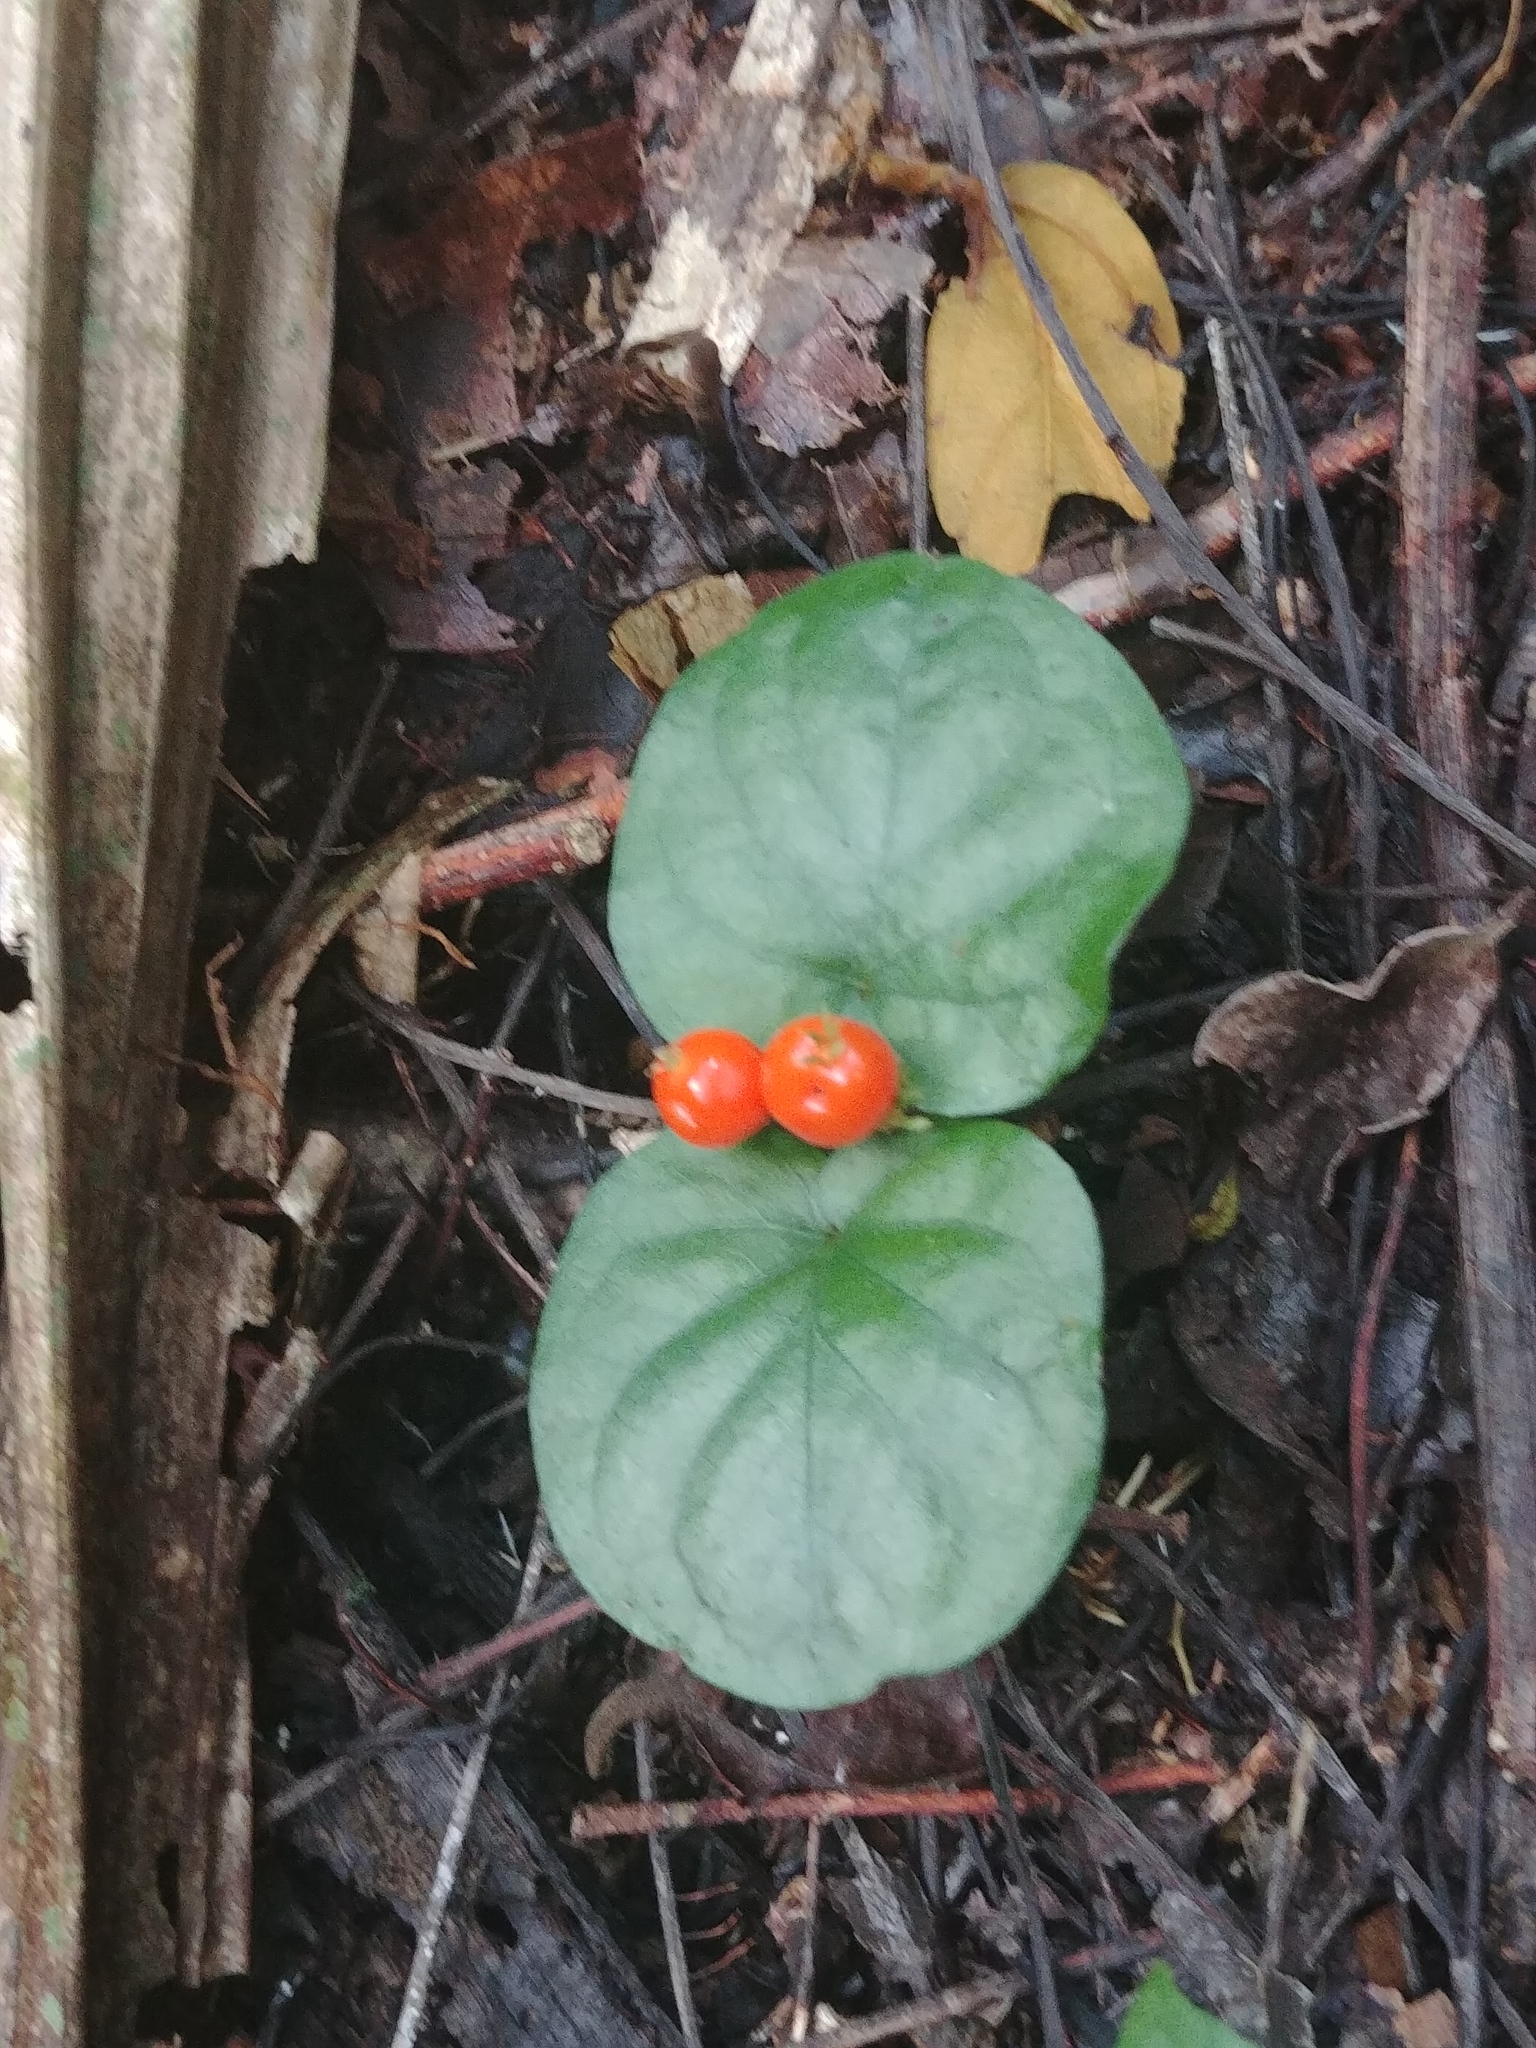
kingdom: Plantae
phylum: Tracheophyta
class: Magnoliopsida
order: Gentianales
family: Rubiaceae
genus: Geophila
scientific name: Geophila repens
